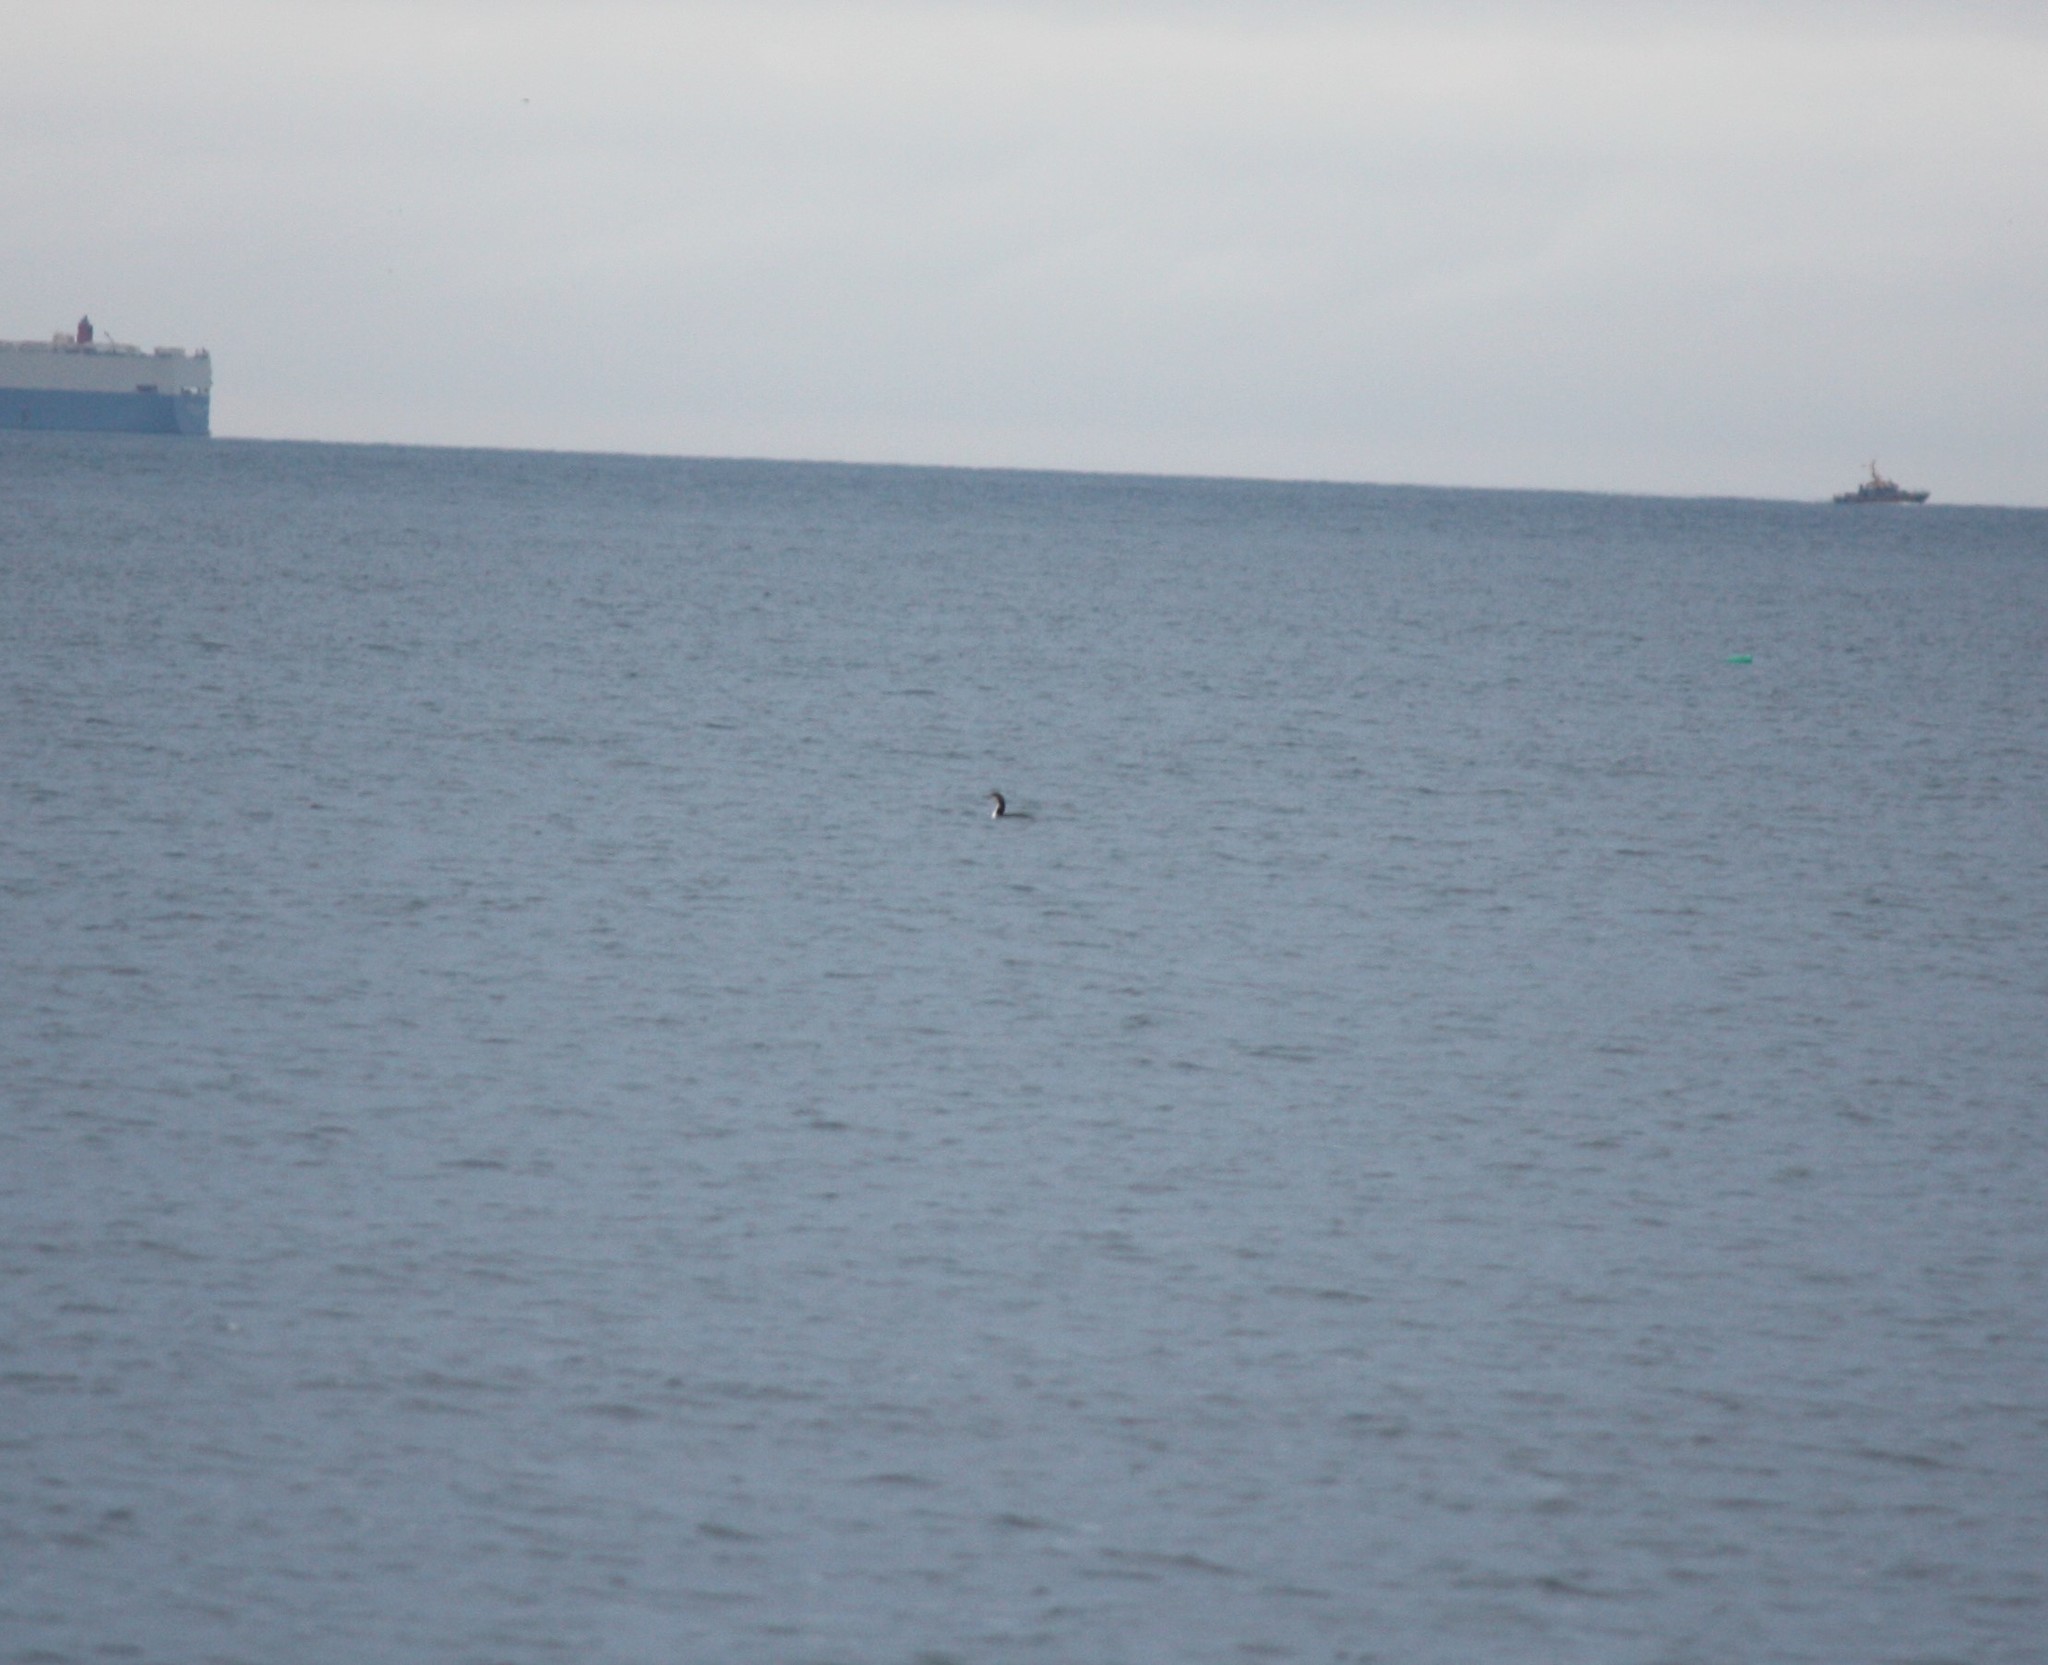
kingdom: Animalia
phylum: Chordata
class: Aves
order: Gaviiformes
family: Gaviidae
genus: Gavia
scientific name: Gavia pacifica
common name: Pacific loon
